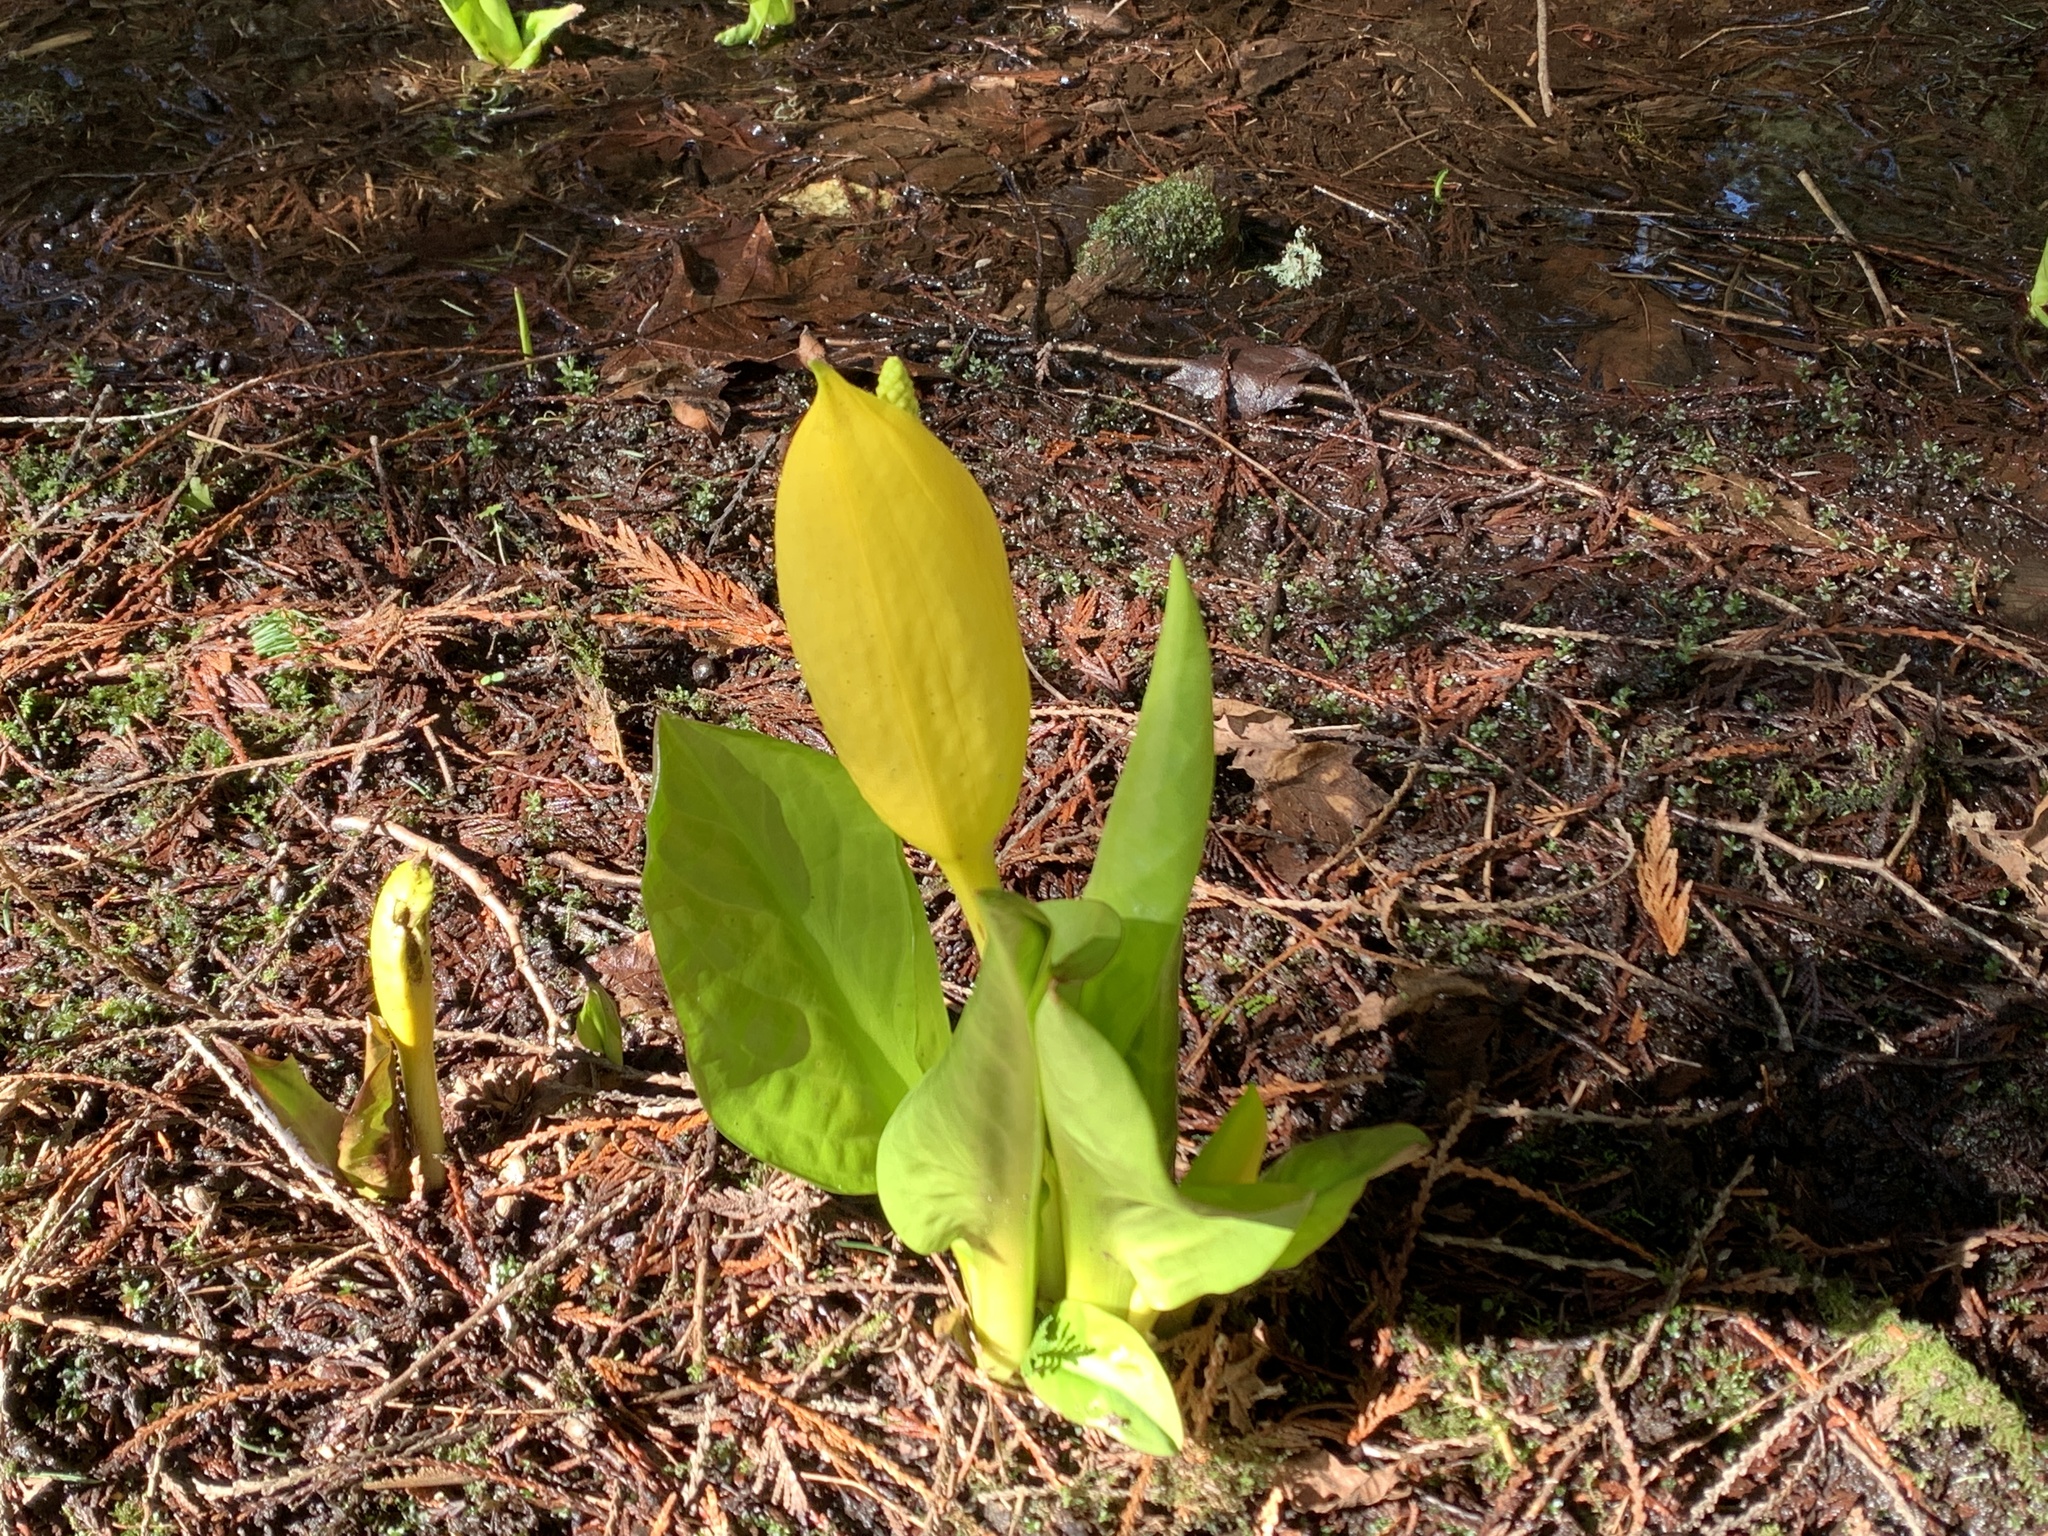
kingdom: Plantae
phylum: Tracheophyta
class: Liliopsida
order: Alismatales
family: Araceae
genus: Lysichiton
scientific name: Lysichiton americanus
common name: American skunk cabbage
